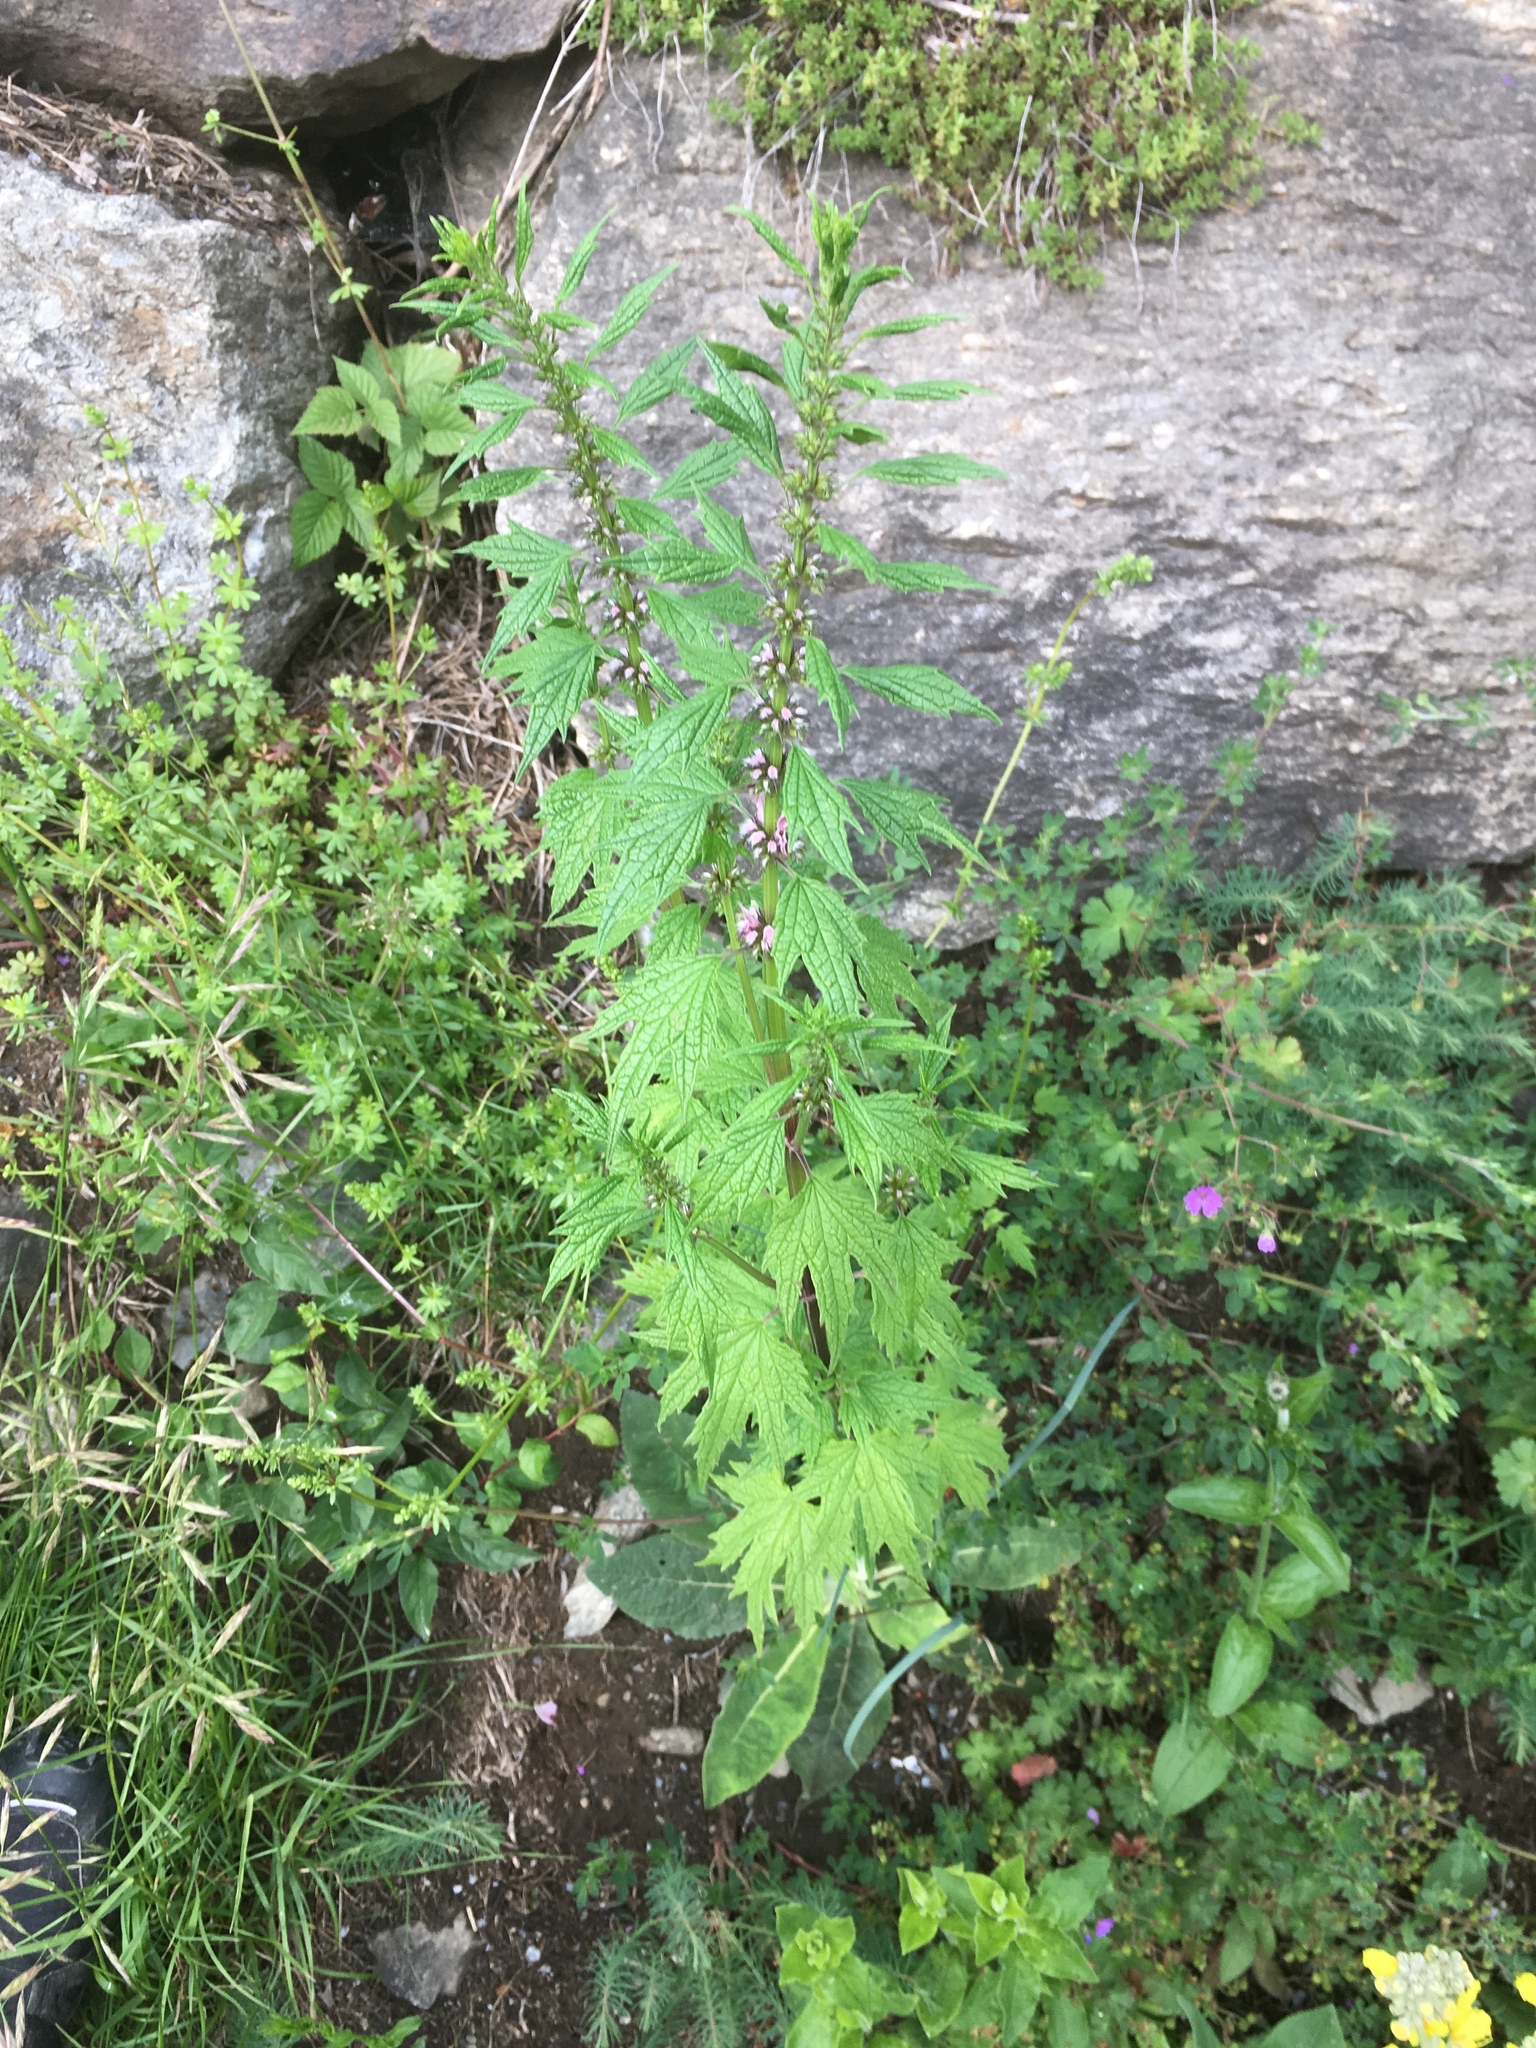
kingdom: Plantae
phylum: Tracheophyta
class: Magnoliopsida
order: Lamiales
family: Lamiaceae
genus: Leonurus
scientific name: Leonurus cardiaca
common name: Motherwort
